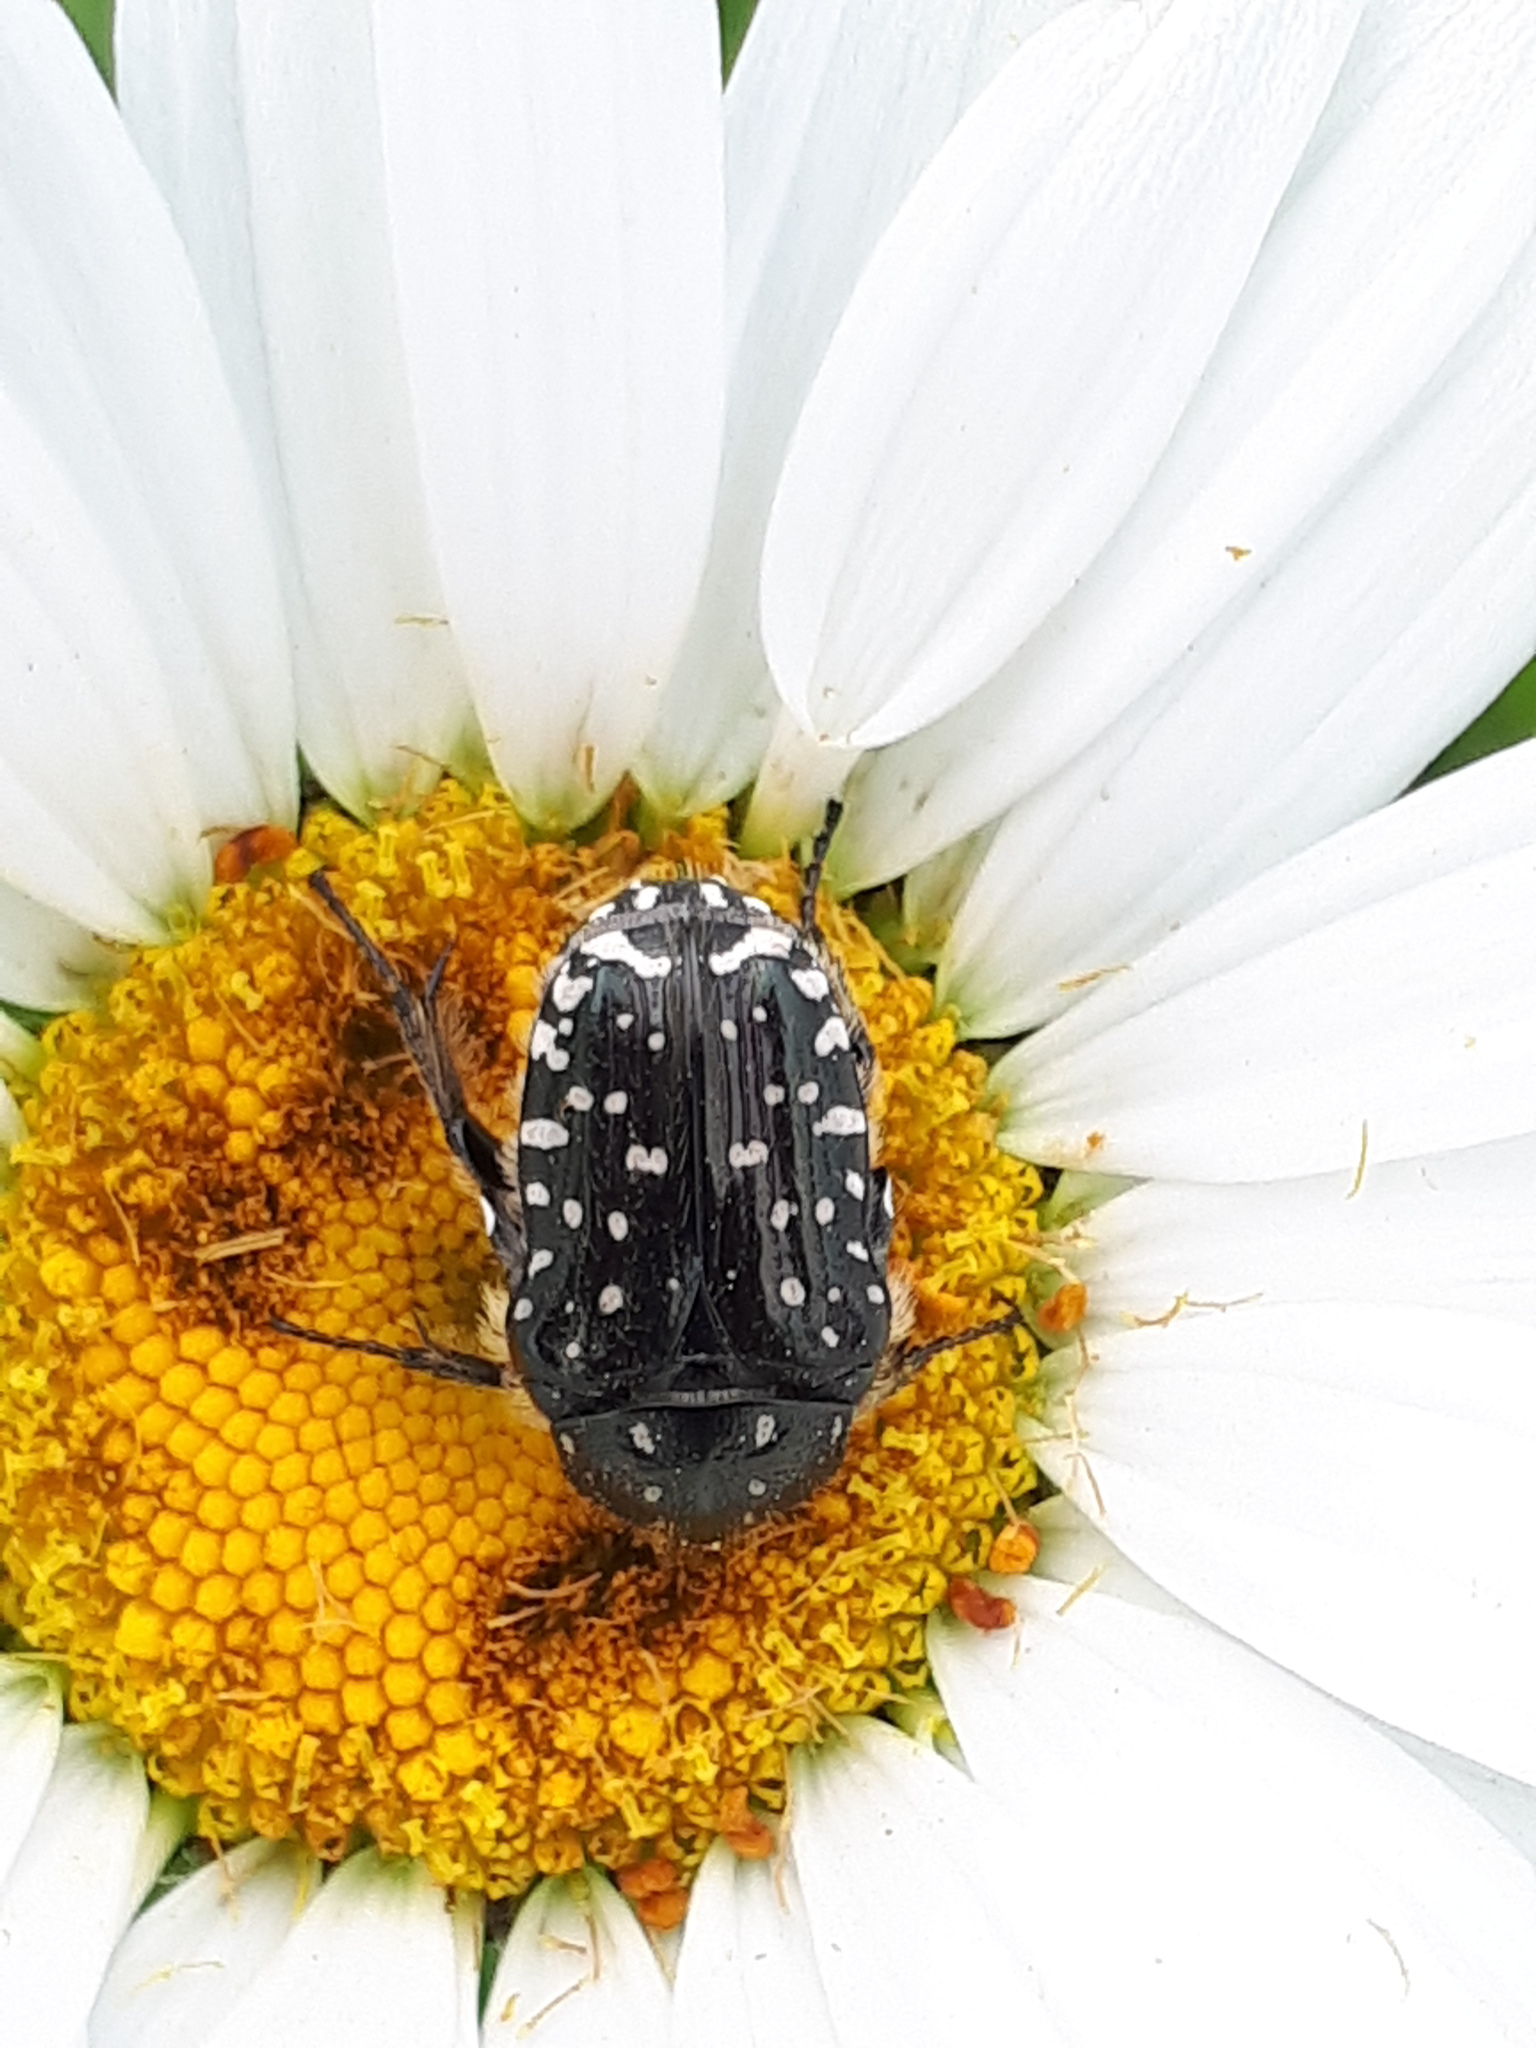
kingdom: Animalia
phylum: Arthropoda
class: Insecta
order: Coleoptera
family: Scarabaeidae
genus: Oxythyrea
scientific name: Oxythyrea funesta
